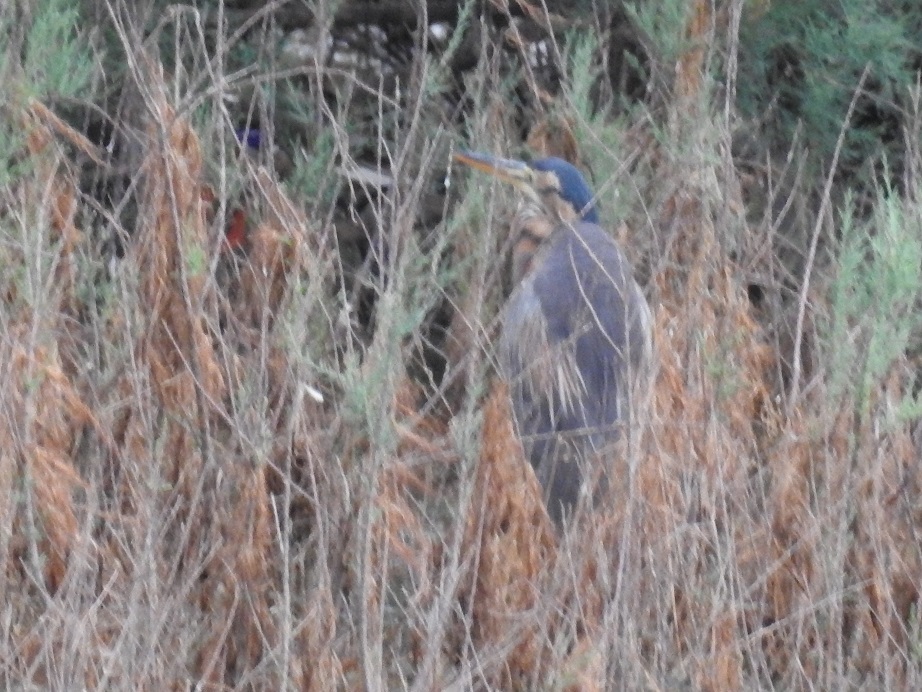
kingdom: Animalia
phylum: Chordata
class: Aves
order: Pelecaniformes
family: Ardeidae
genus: Ardea
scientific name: Ardea purpurea
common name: Purple heron
